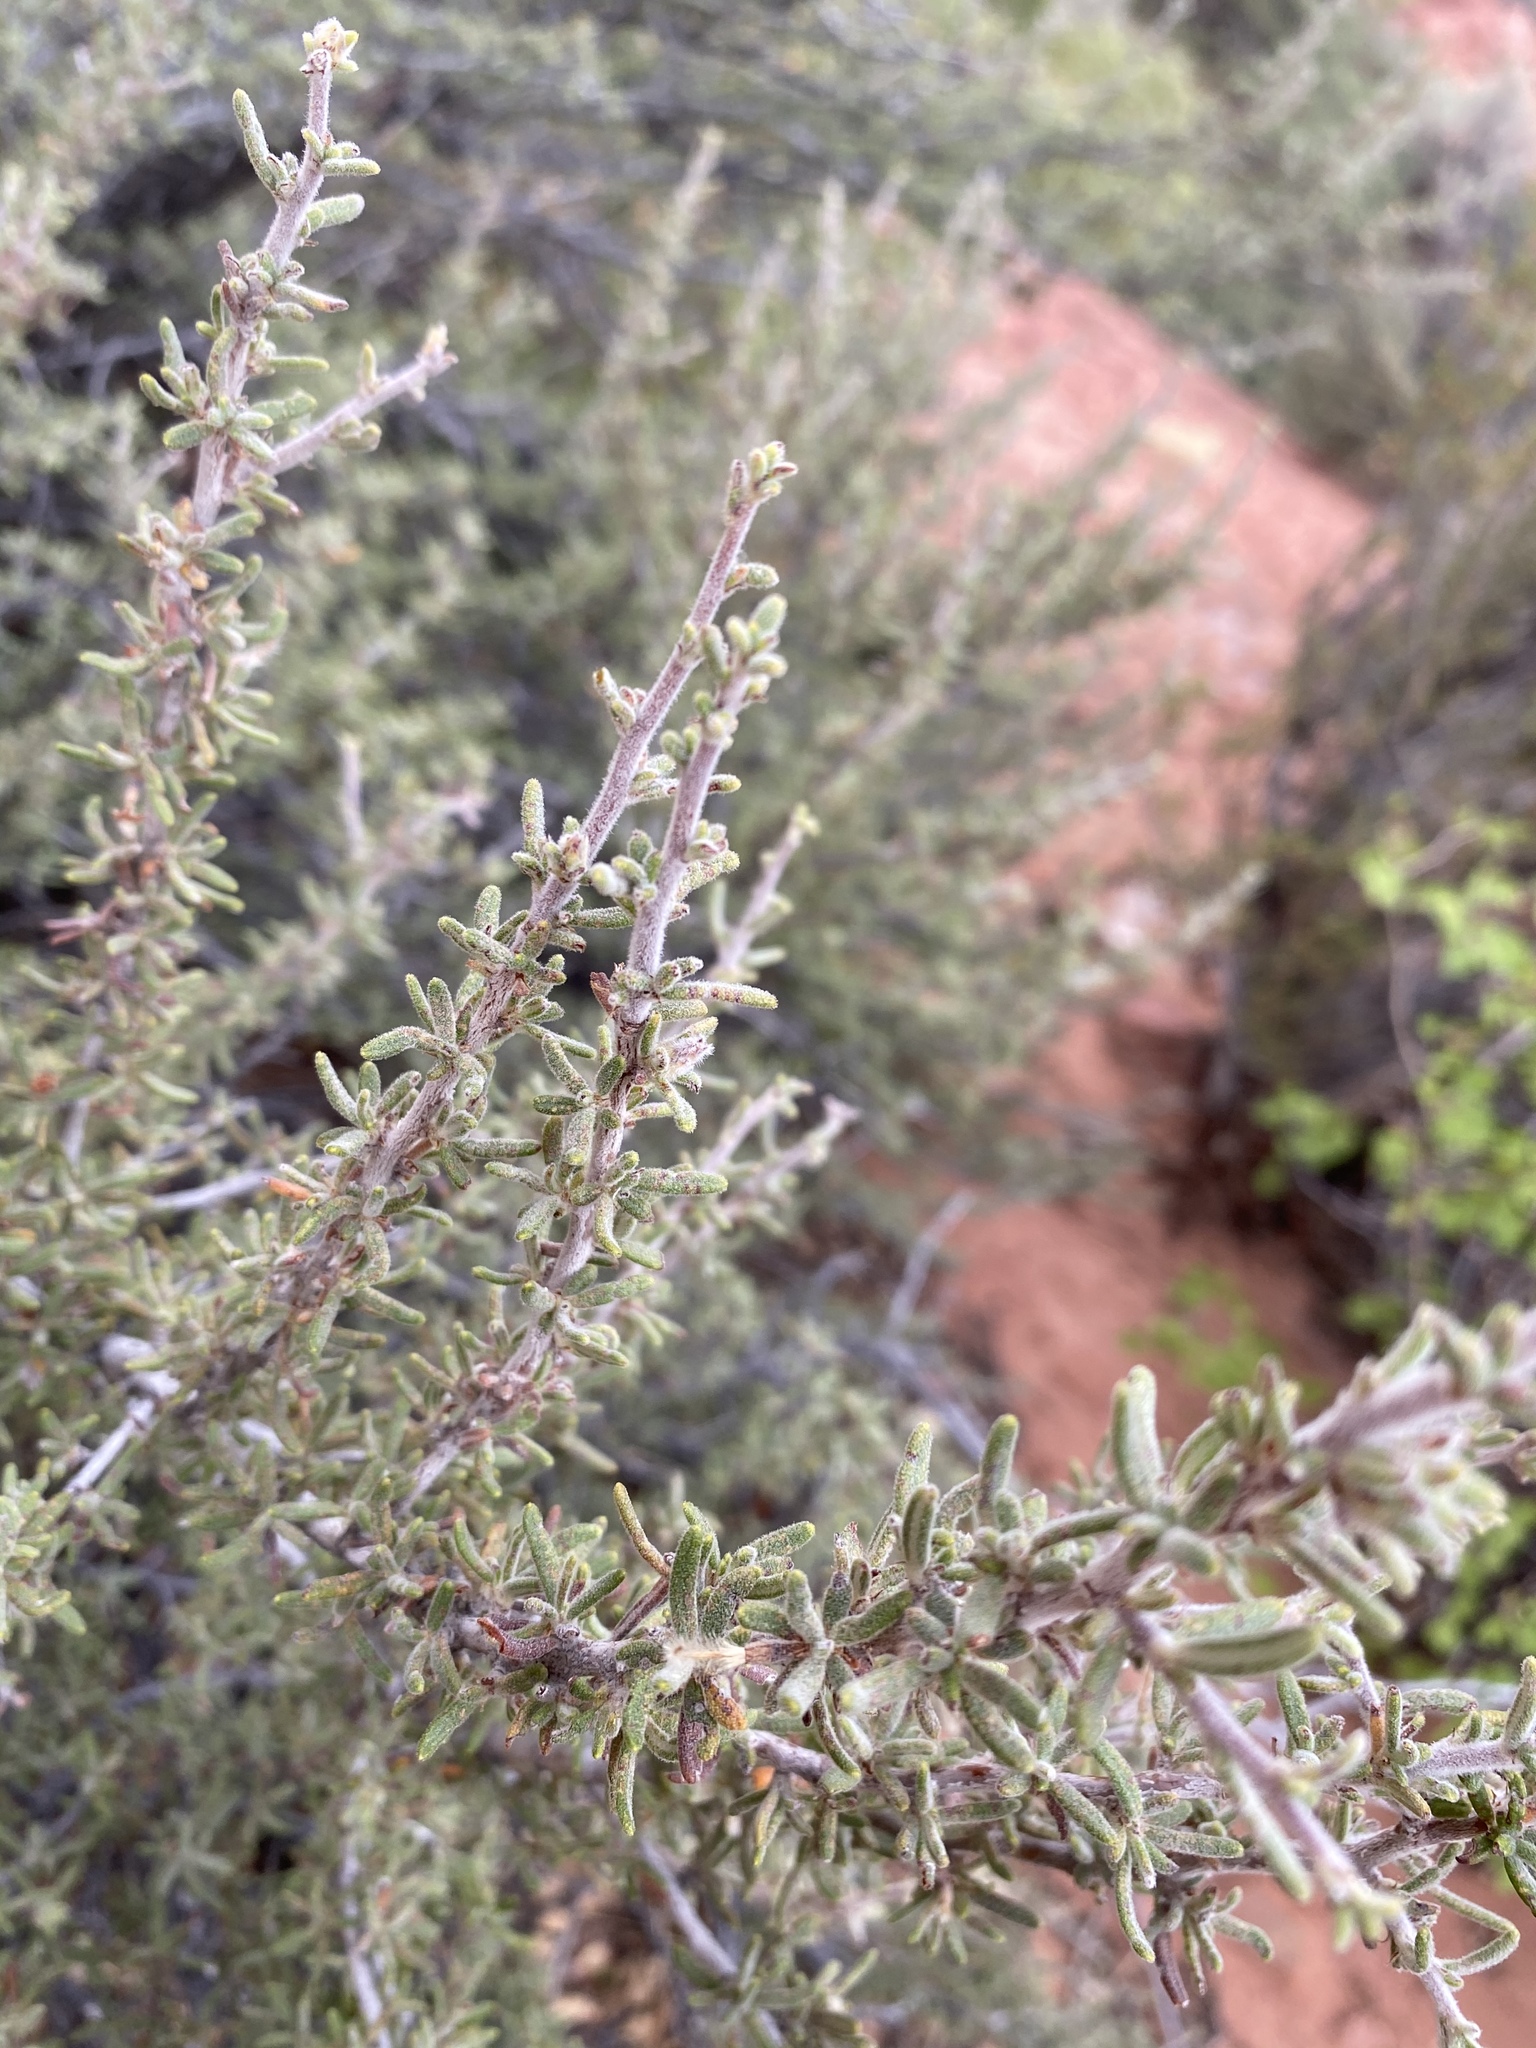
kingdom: Plantae
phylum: Tracheophyta
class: Magnoliopsida
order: Rosales
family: Rosaceae
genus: Cercocarpus
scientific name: Cercocarpus intricatus
